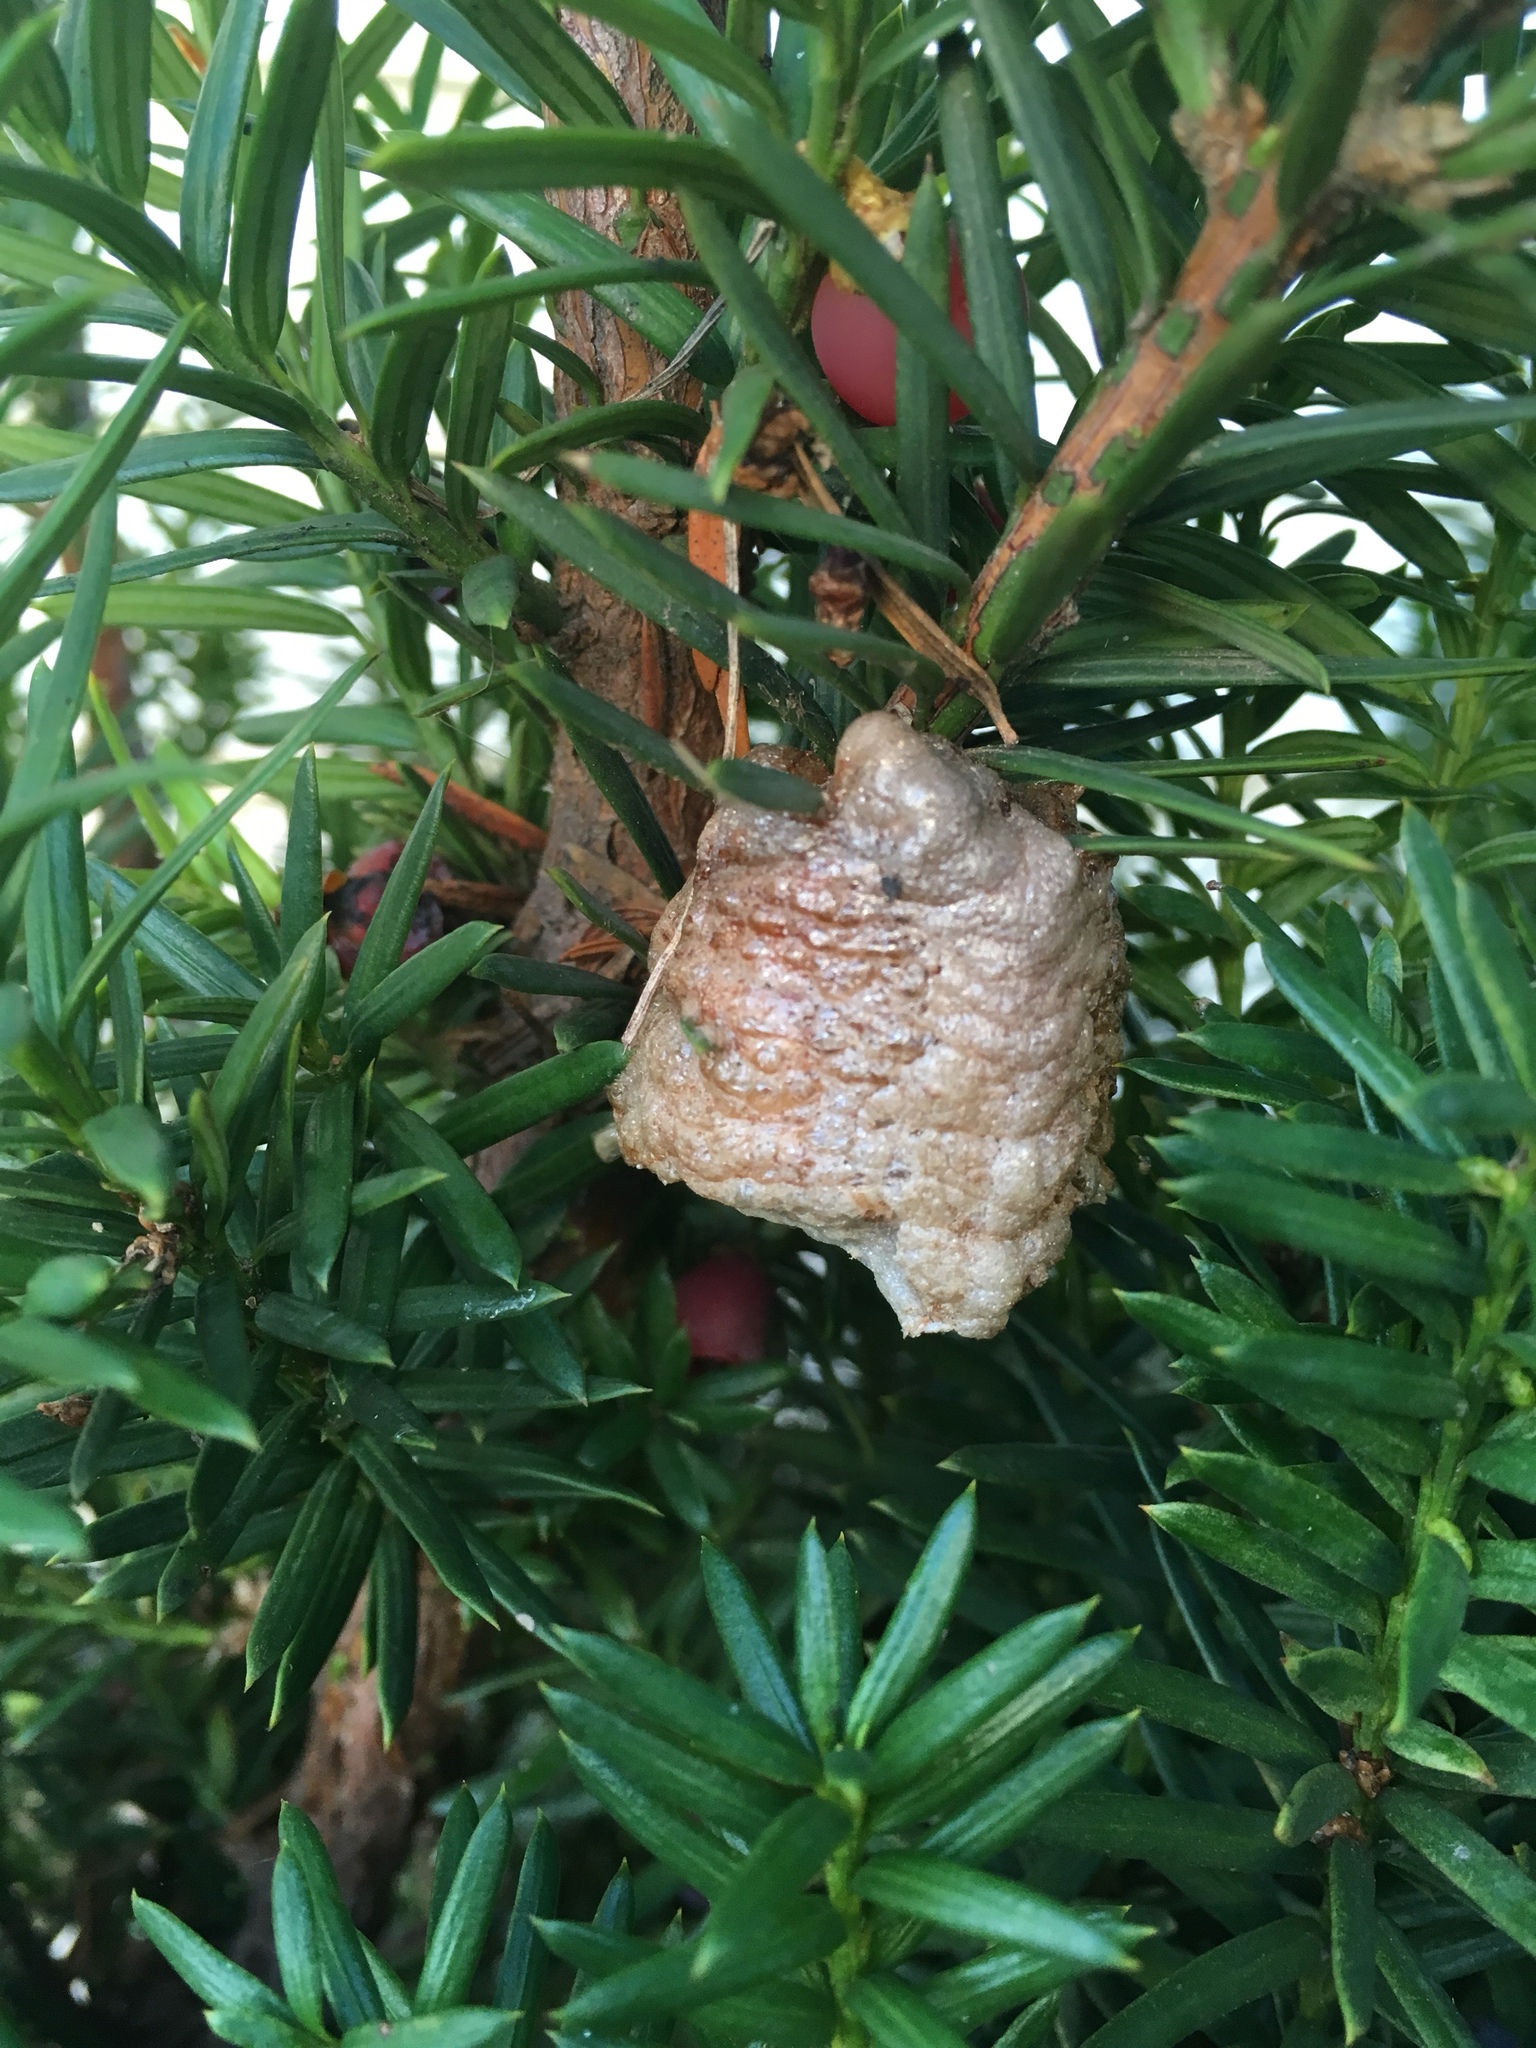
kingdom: Animalia
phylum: Arthropoda
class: Insecta
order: Mantodea
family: Mantidae
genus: Tenodera
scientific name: Tenodera sinensis
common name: Chinese mantis
